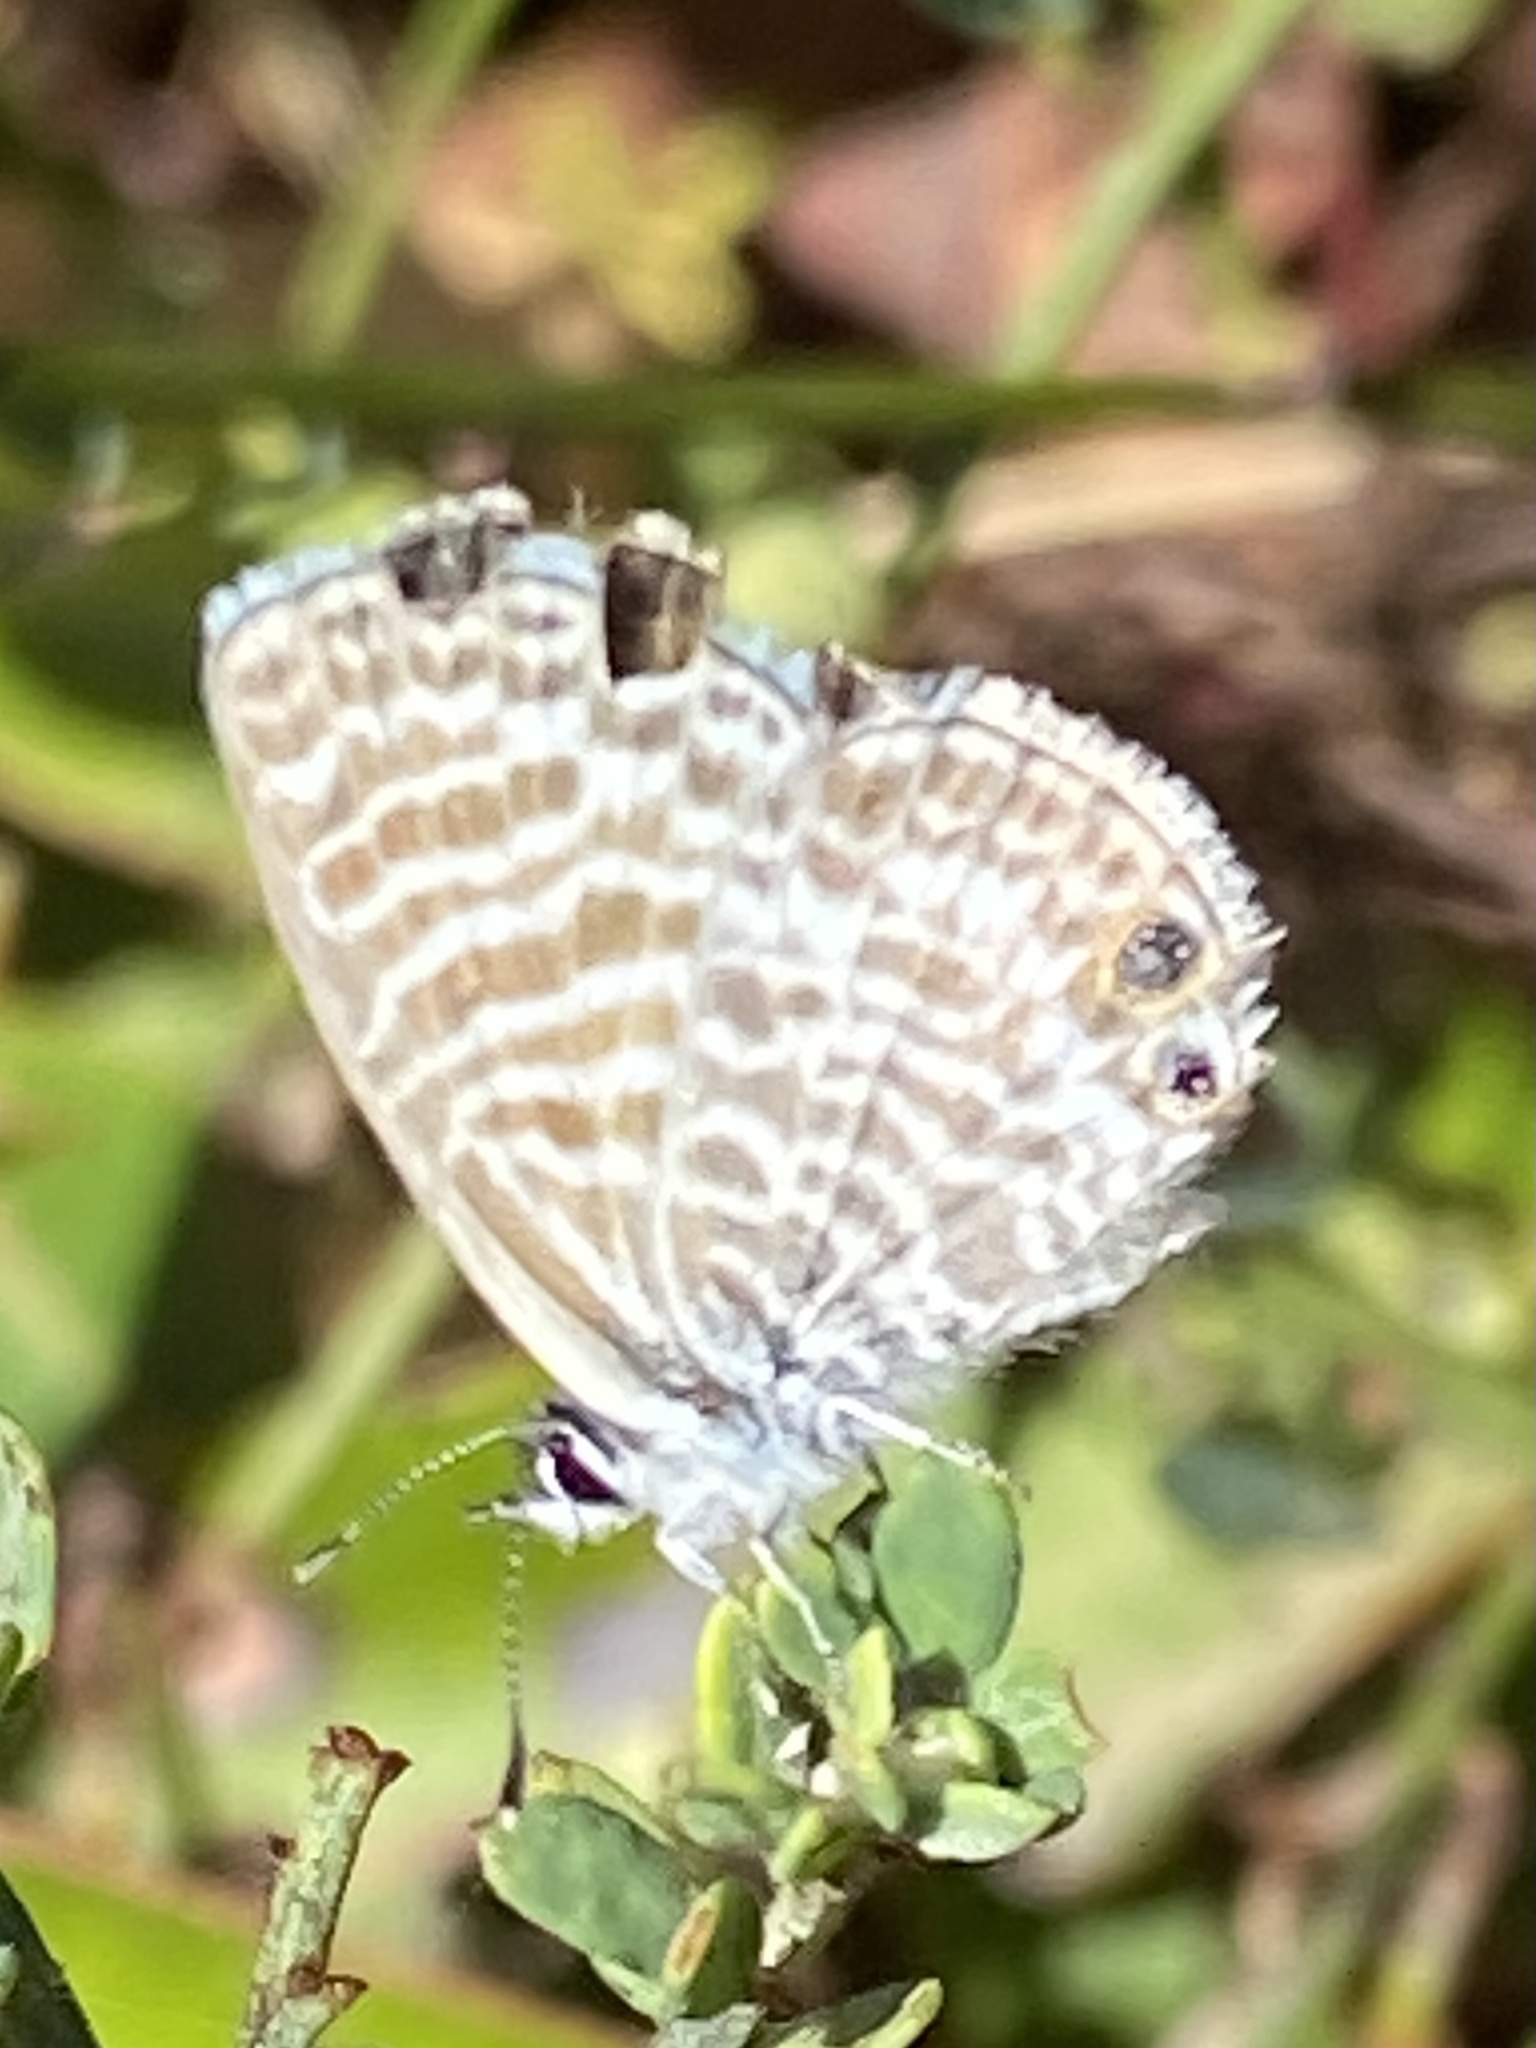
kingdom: Animalia
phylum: Arthropoda
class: Insecta
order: Lepidoptera
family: Lycaenidae
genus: Leptotes
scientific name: Leptotes marina
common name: Marine blue
